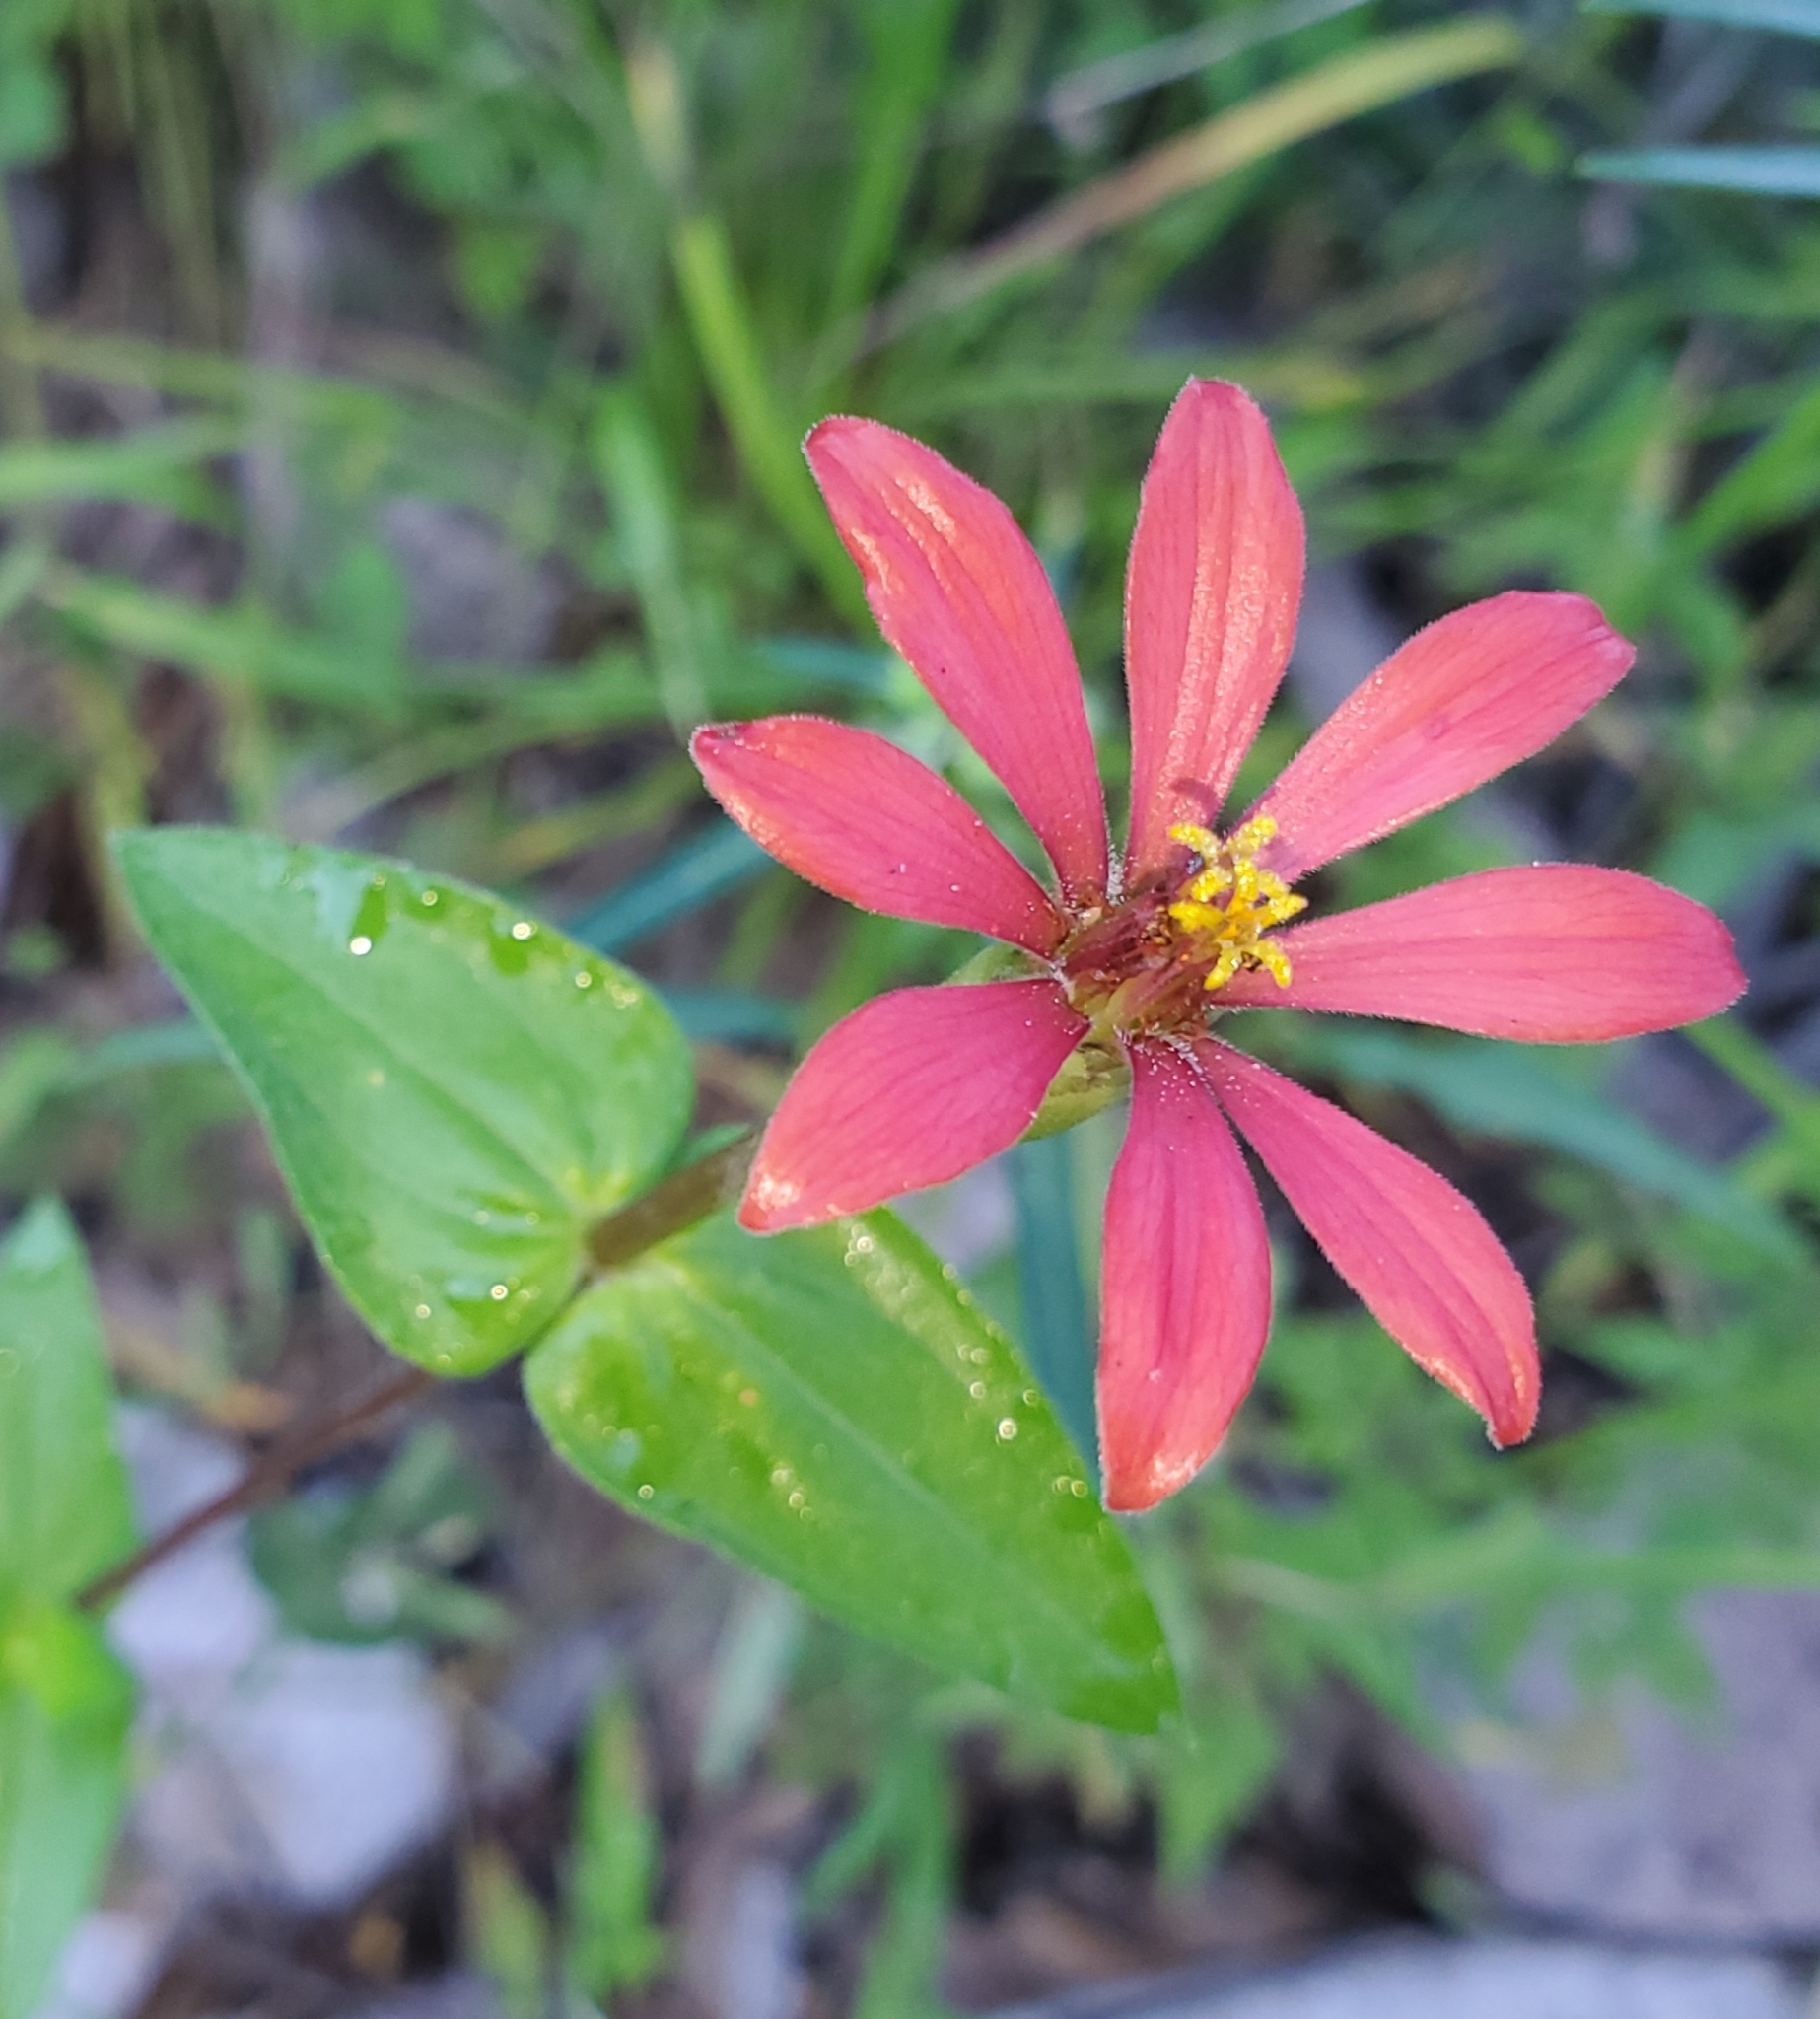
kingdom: Plantae
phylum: Tracheophyta
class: Magnoliopsida
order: Asterales
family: Asteraceae
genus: Zinnia
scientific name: Zinnia peruviana
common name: Peruvian zinnia
